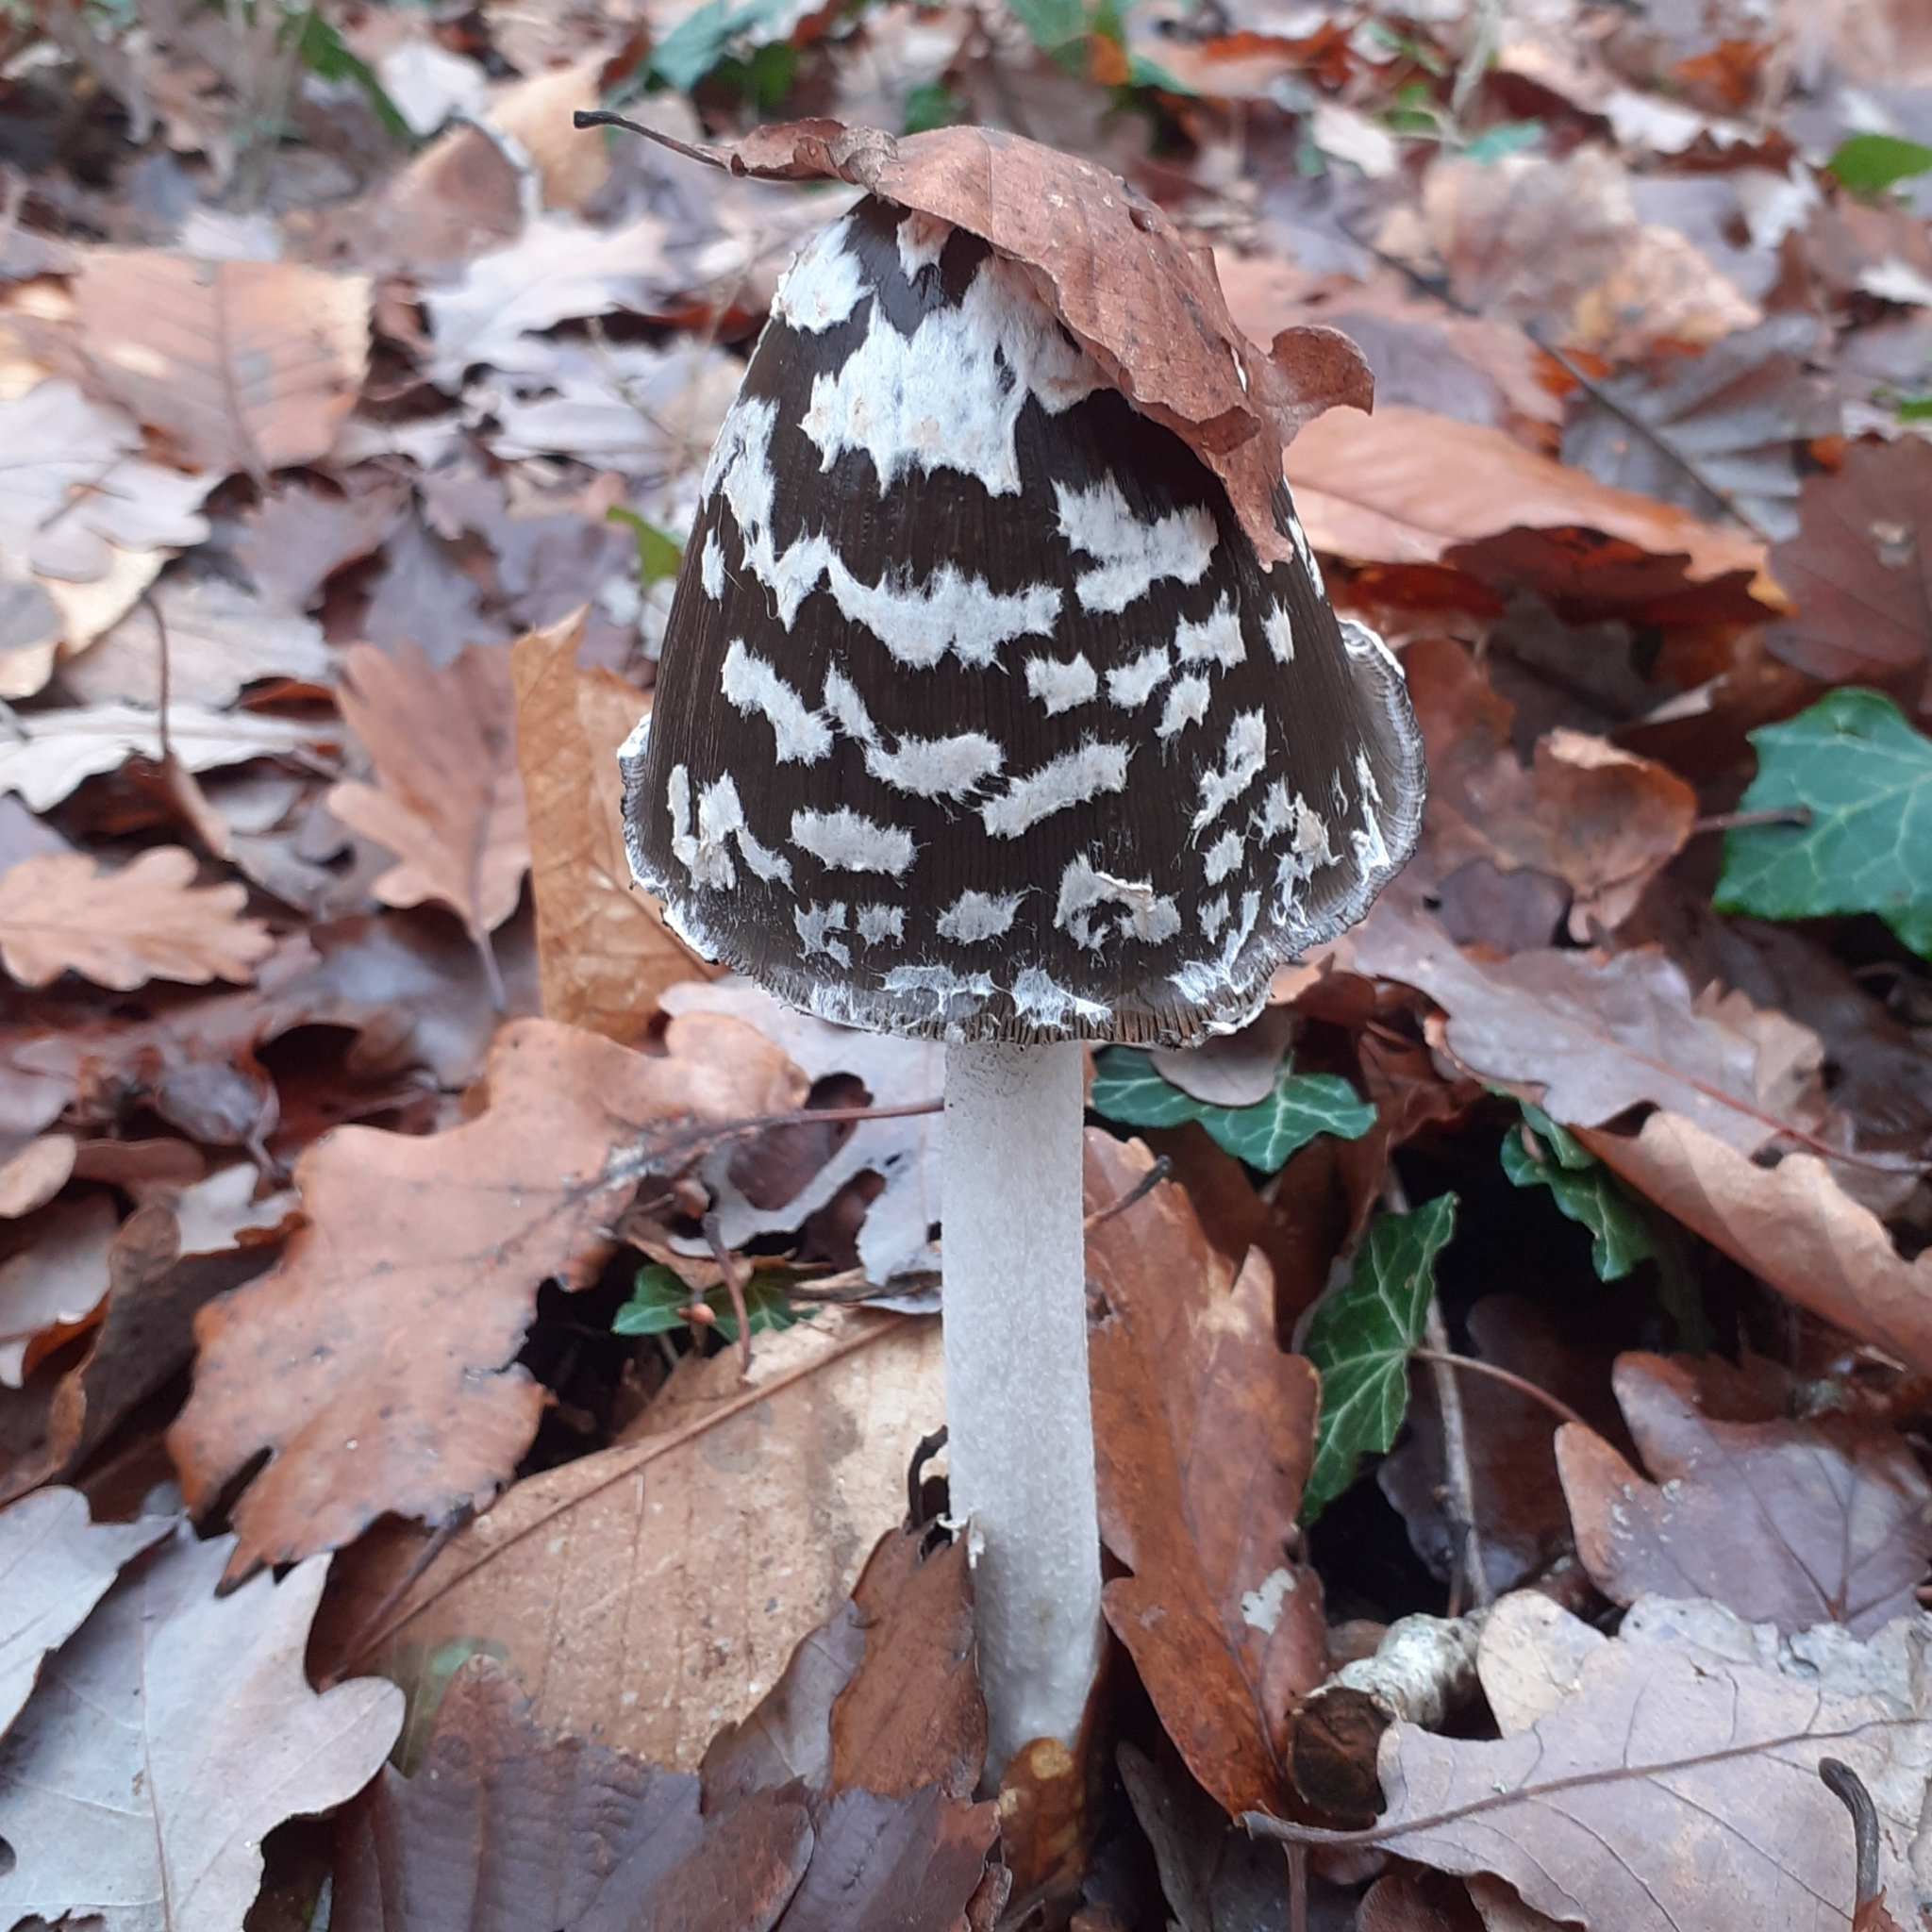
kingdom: Fungi
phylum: Basidiomycota
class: Agaricomycetes
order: Agaricales
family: Psathyrellaceae
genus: Coprinopsis
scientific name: Coprinopsis picacea
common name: Magpie inkcap
